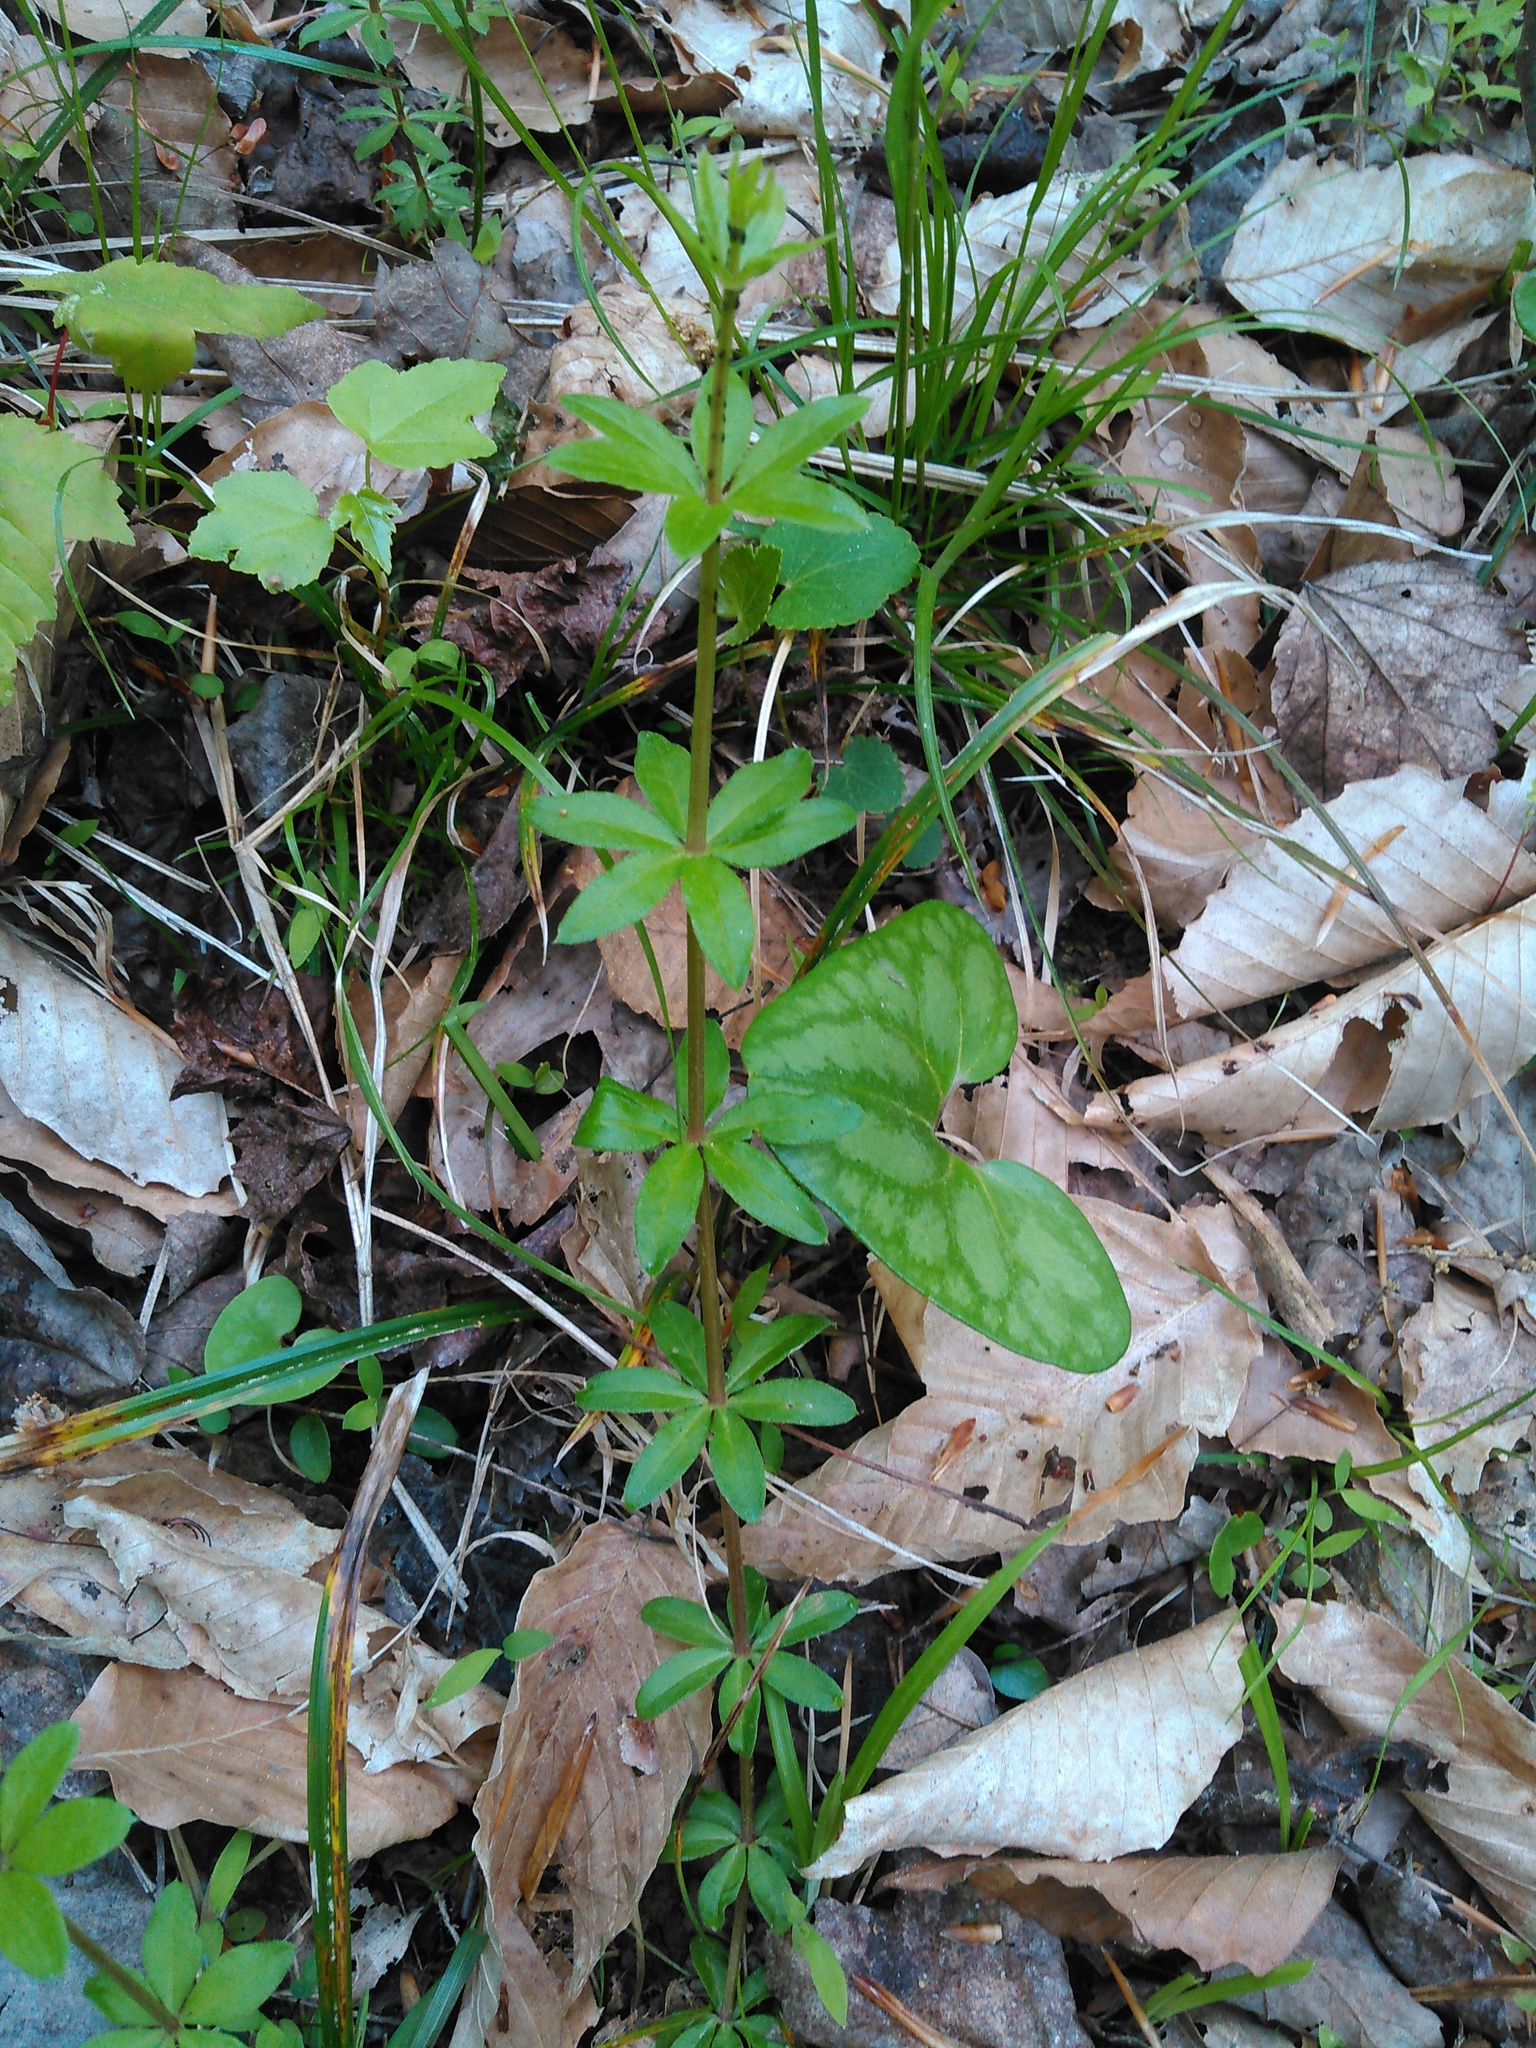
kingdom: Plantae
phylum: Tracheophyta
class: Magnoliopsida
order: Gentianales
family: Rubiaceae
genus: Galium
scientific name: Galium triflorum
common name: Fragrant bedstraw
